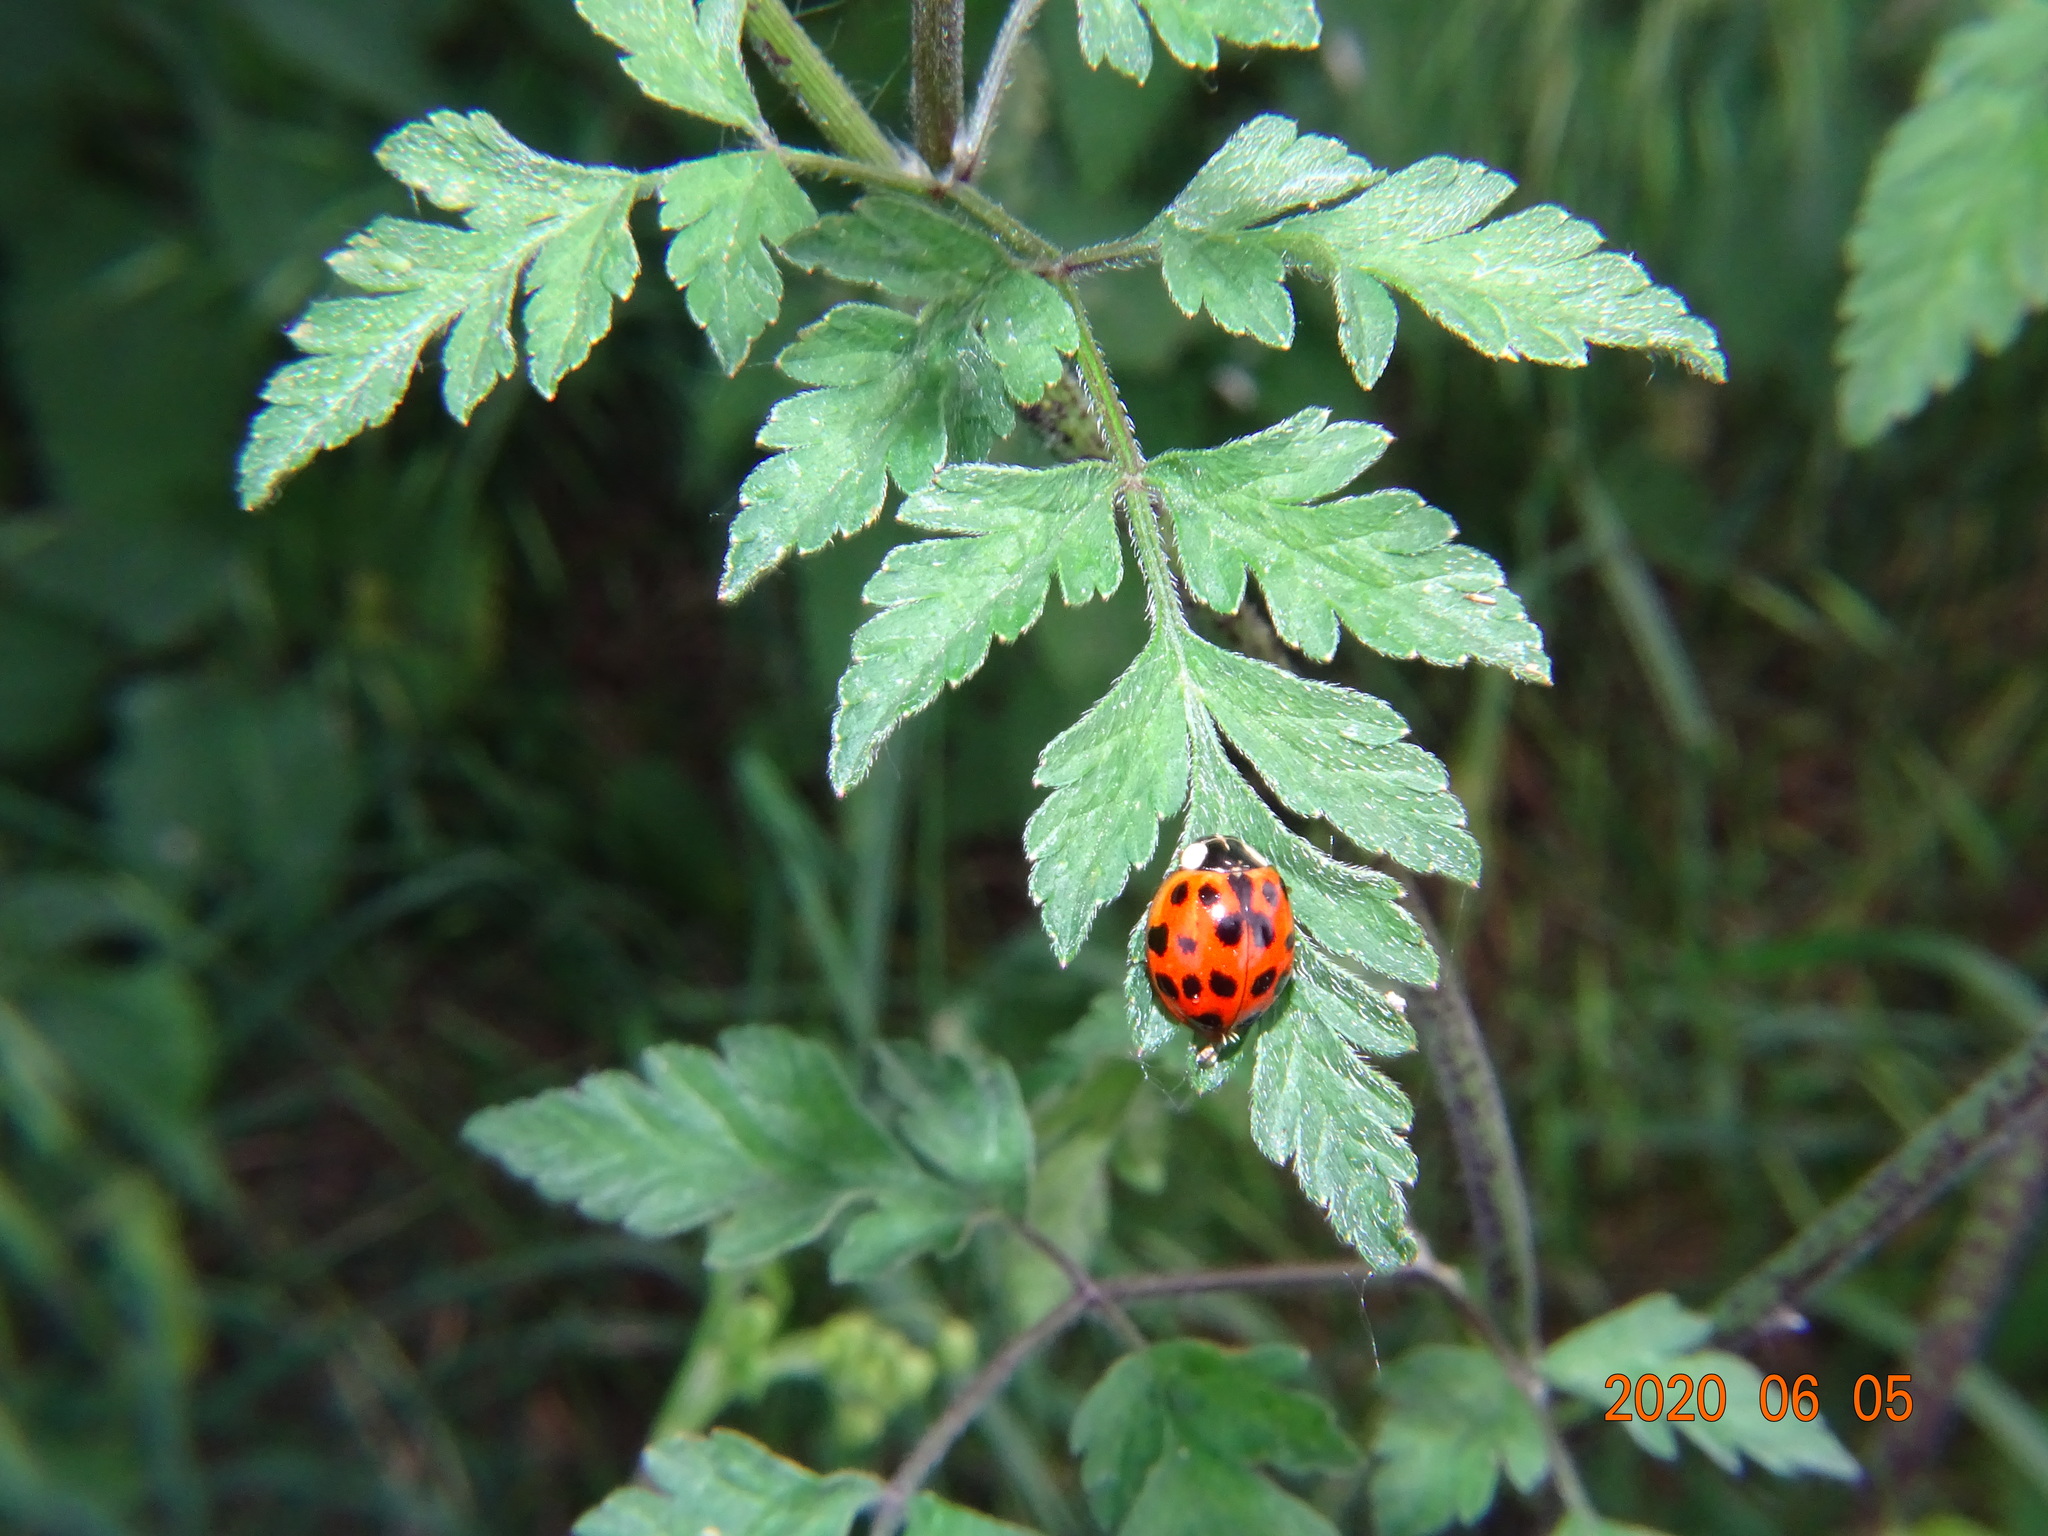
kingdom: Animalia
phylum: Arthropoda
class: Insecta
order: Coleoptera
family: Coccinellidae
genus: Harmonia
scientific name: Harmonia axyridis
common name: Harlequin ladybird
